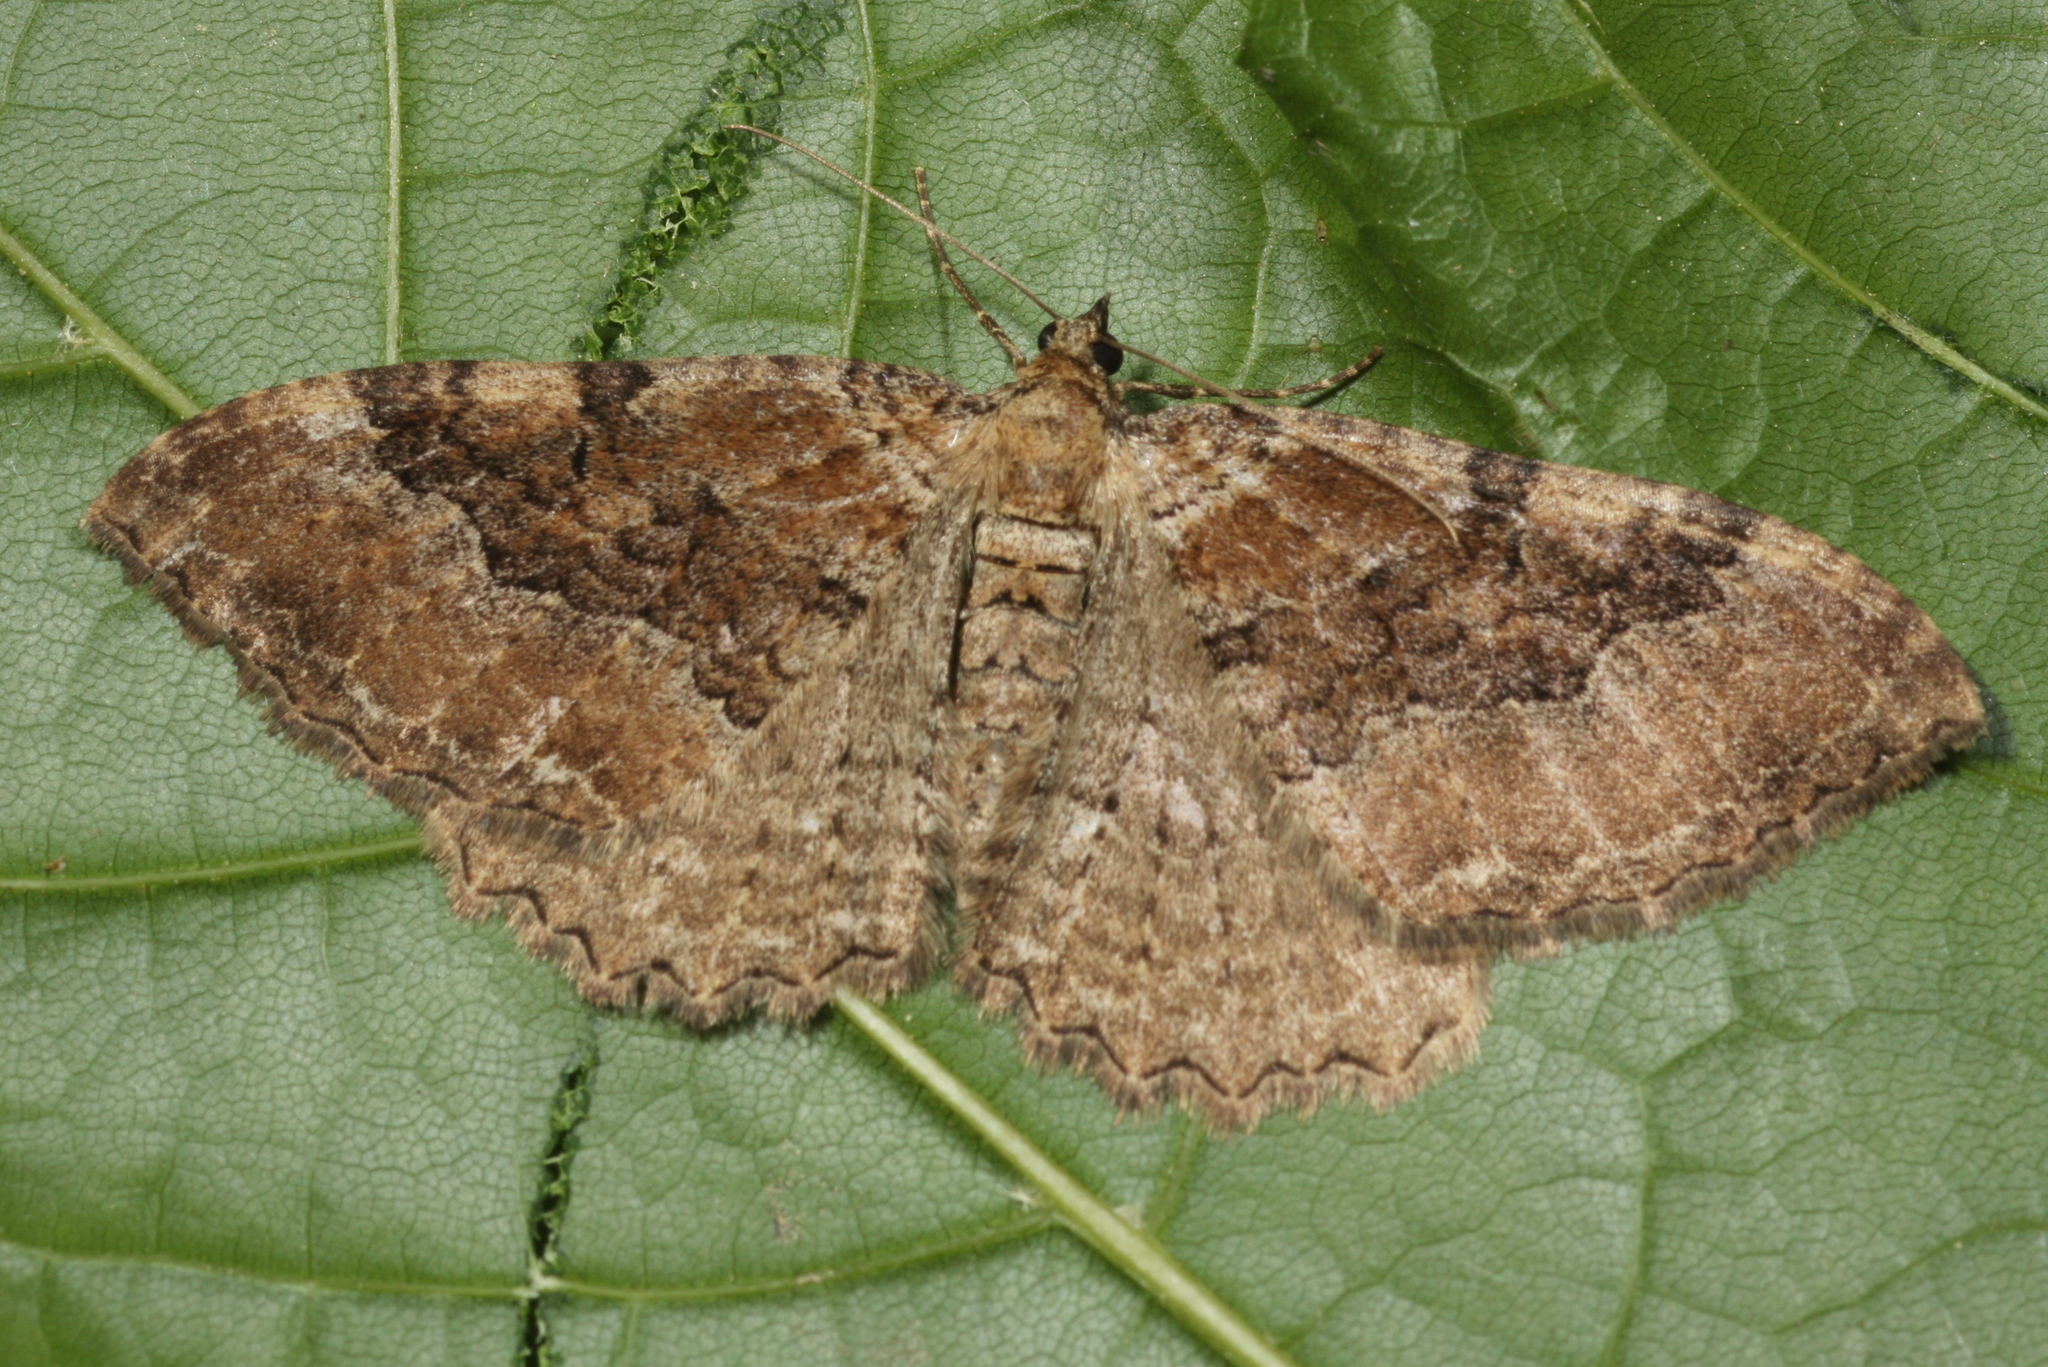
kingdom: Animalia
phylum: Arthropoda
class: Insecta
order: Lepidoptera
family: Geometridae
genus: Rheumaptera
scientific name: Rheumaptera Hydria cervinalis
